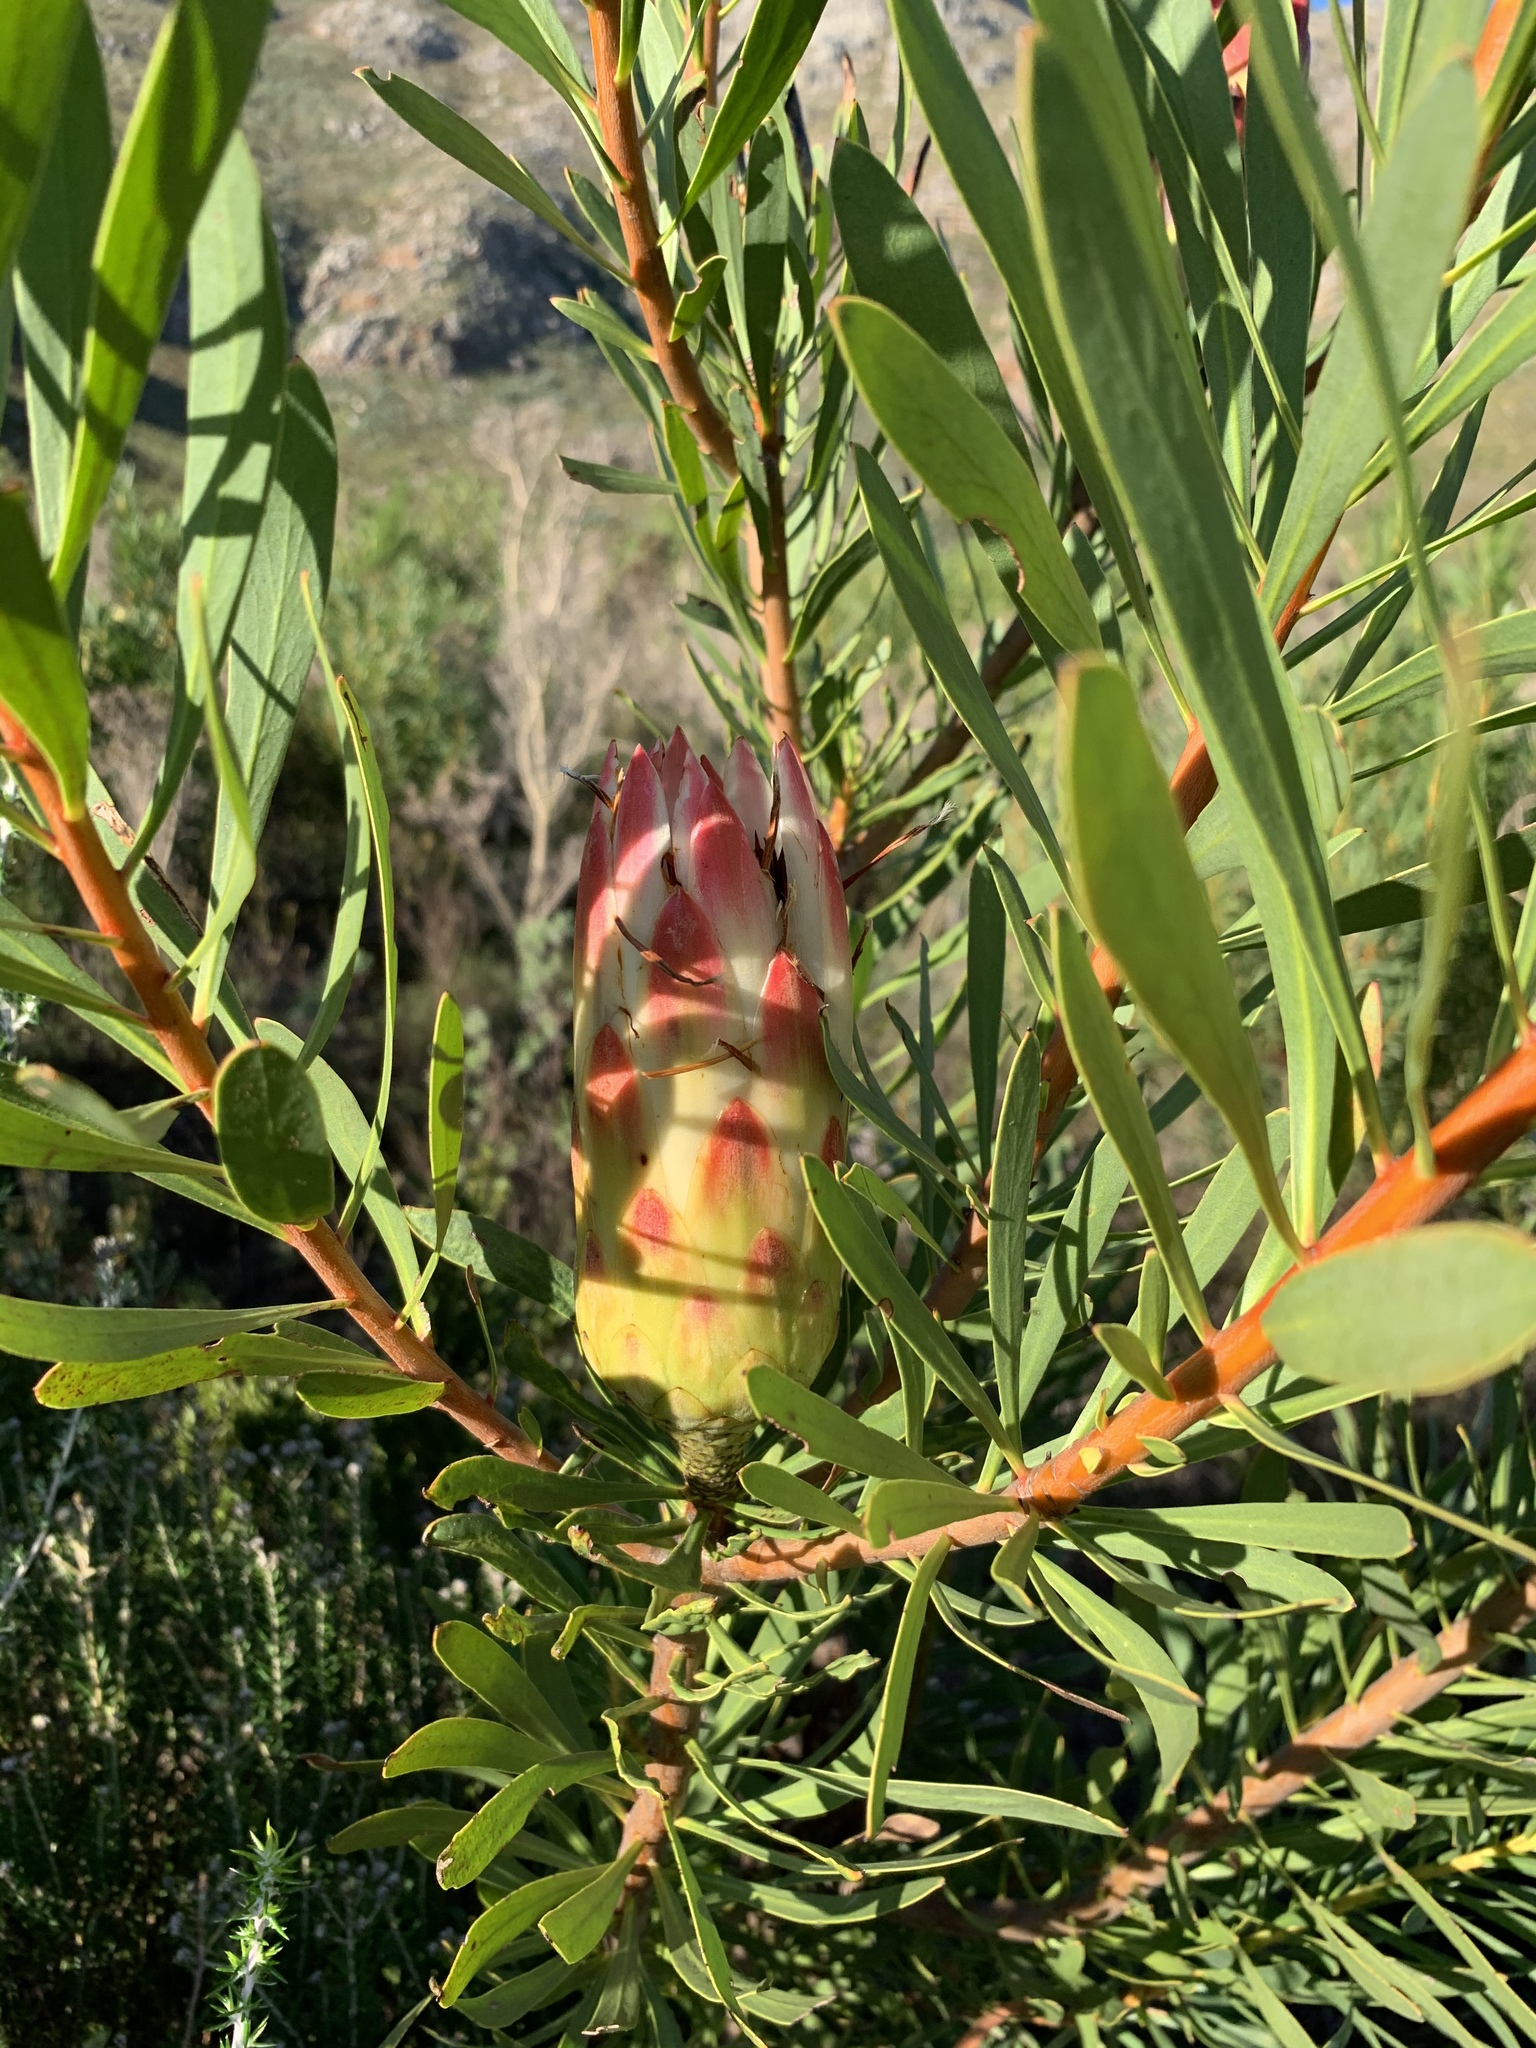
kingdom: Plantae
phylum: Tracheophyta
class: Magnoliopsida
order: Proteales
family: Proteaceae
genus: Protea
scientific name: Protea repens
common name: Sugarbush
